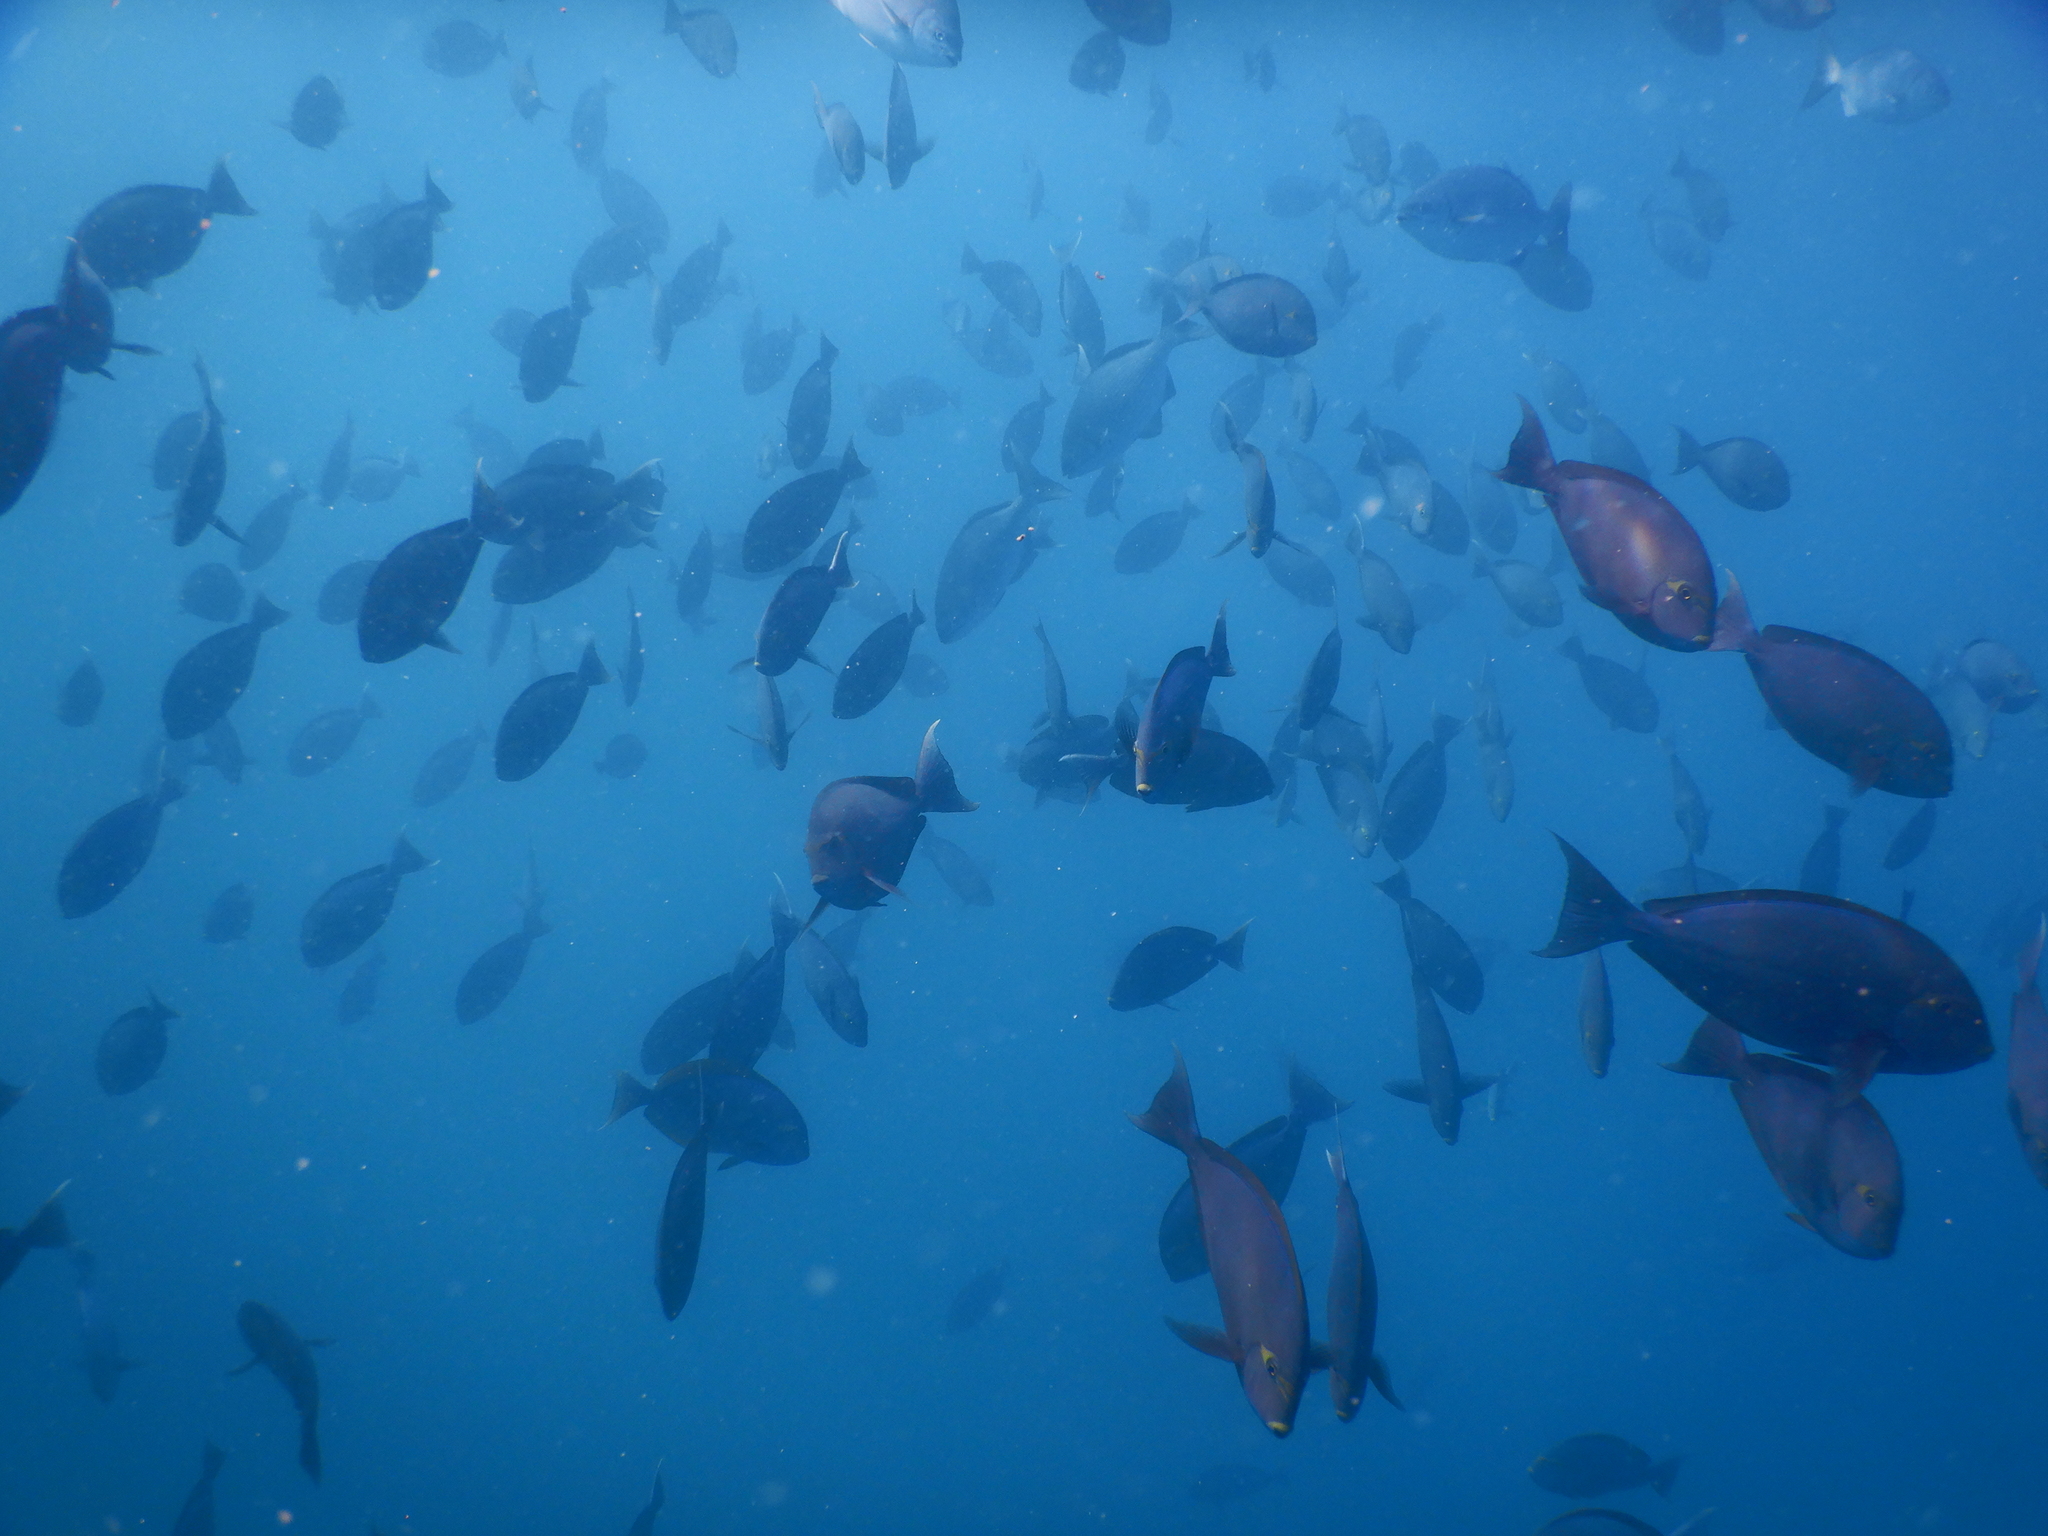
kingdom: Animalia
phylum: Chordata
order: Perciformes
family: Acanthuridae
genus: Acanthurus
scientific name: Acanthurus mata
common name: Bleeker's surgeonfish
